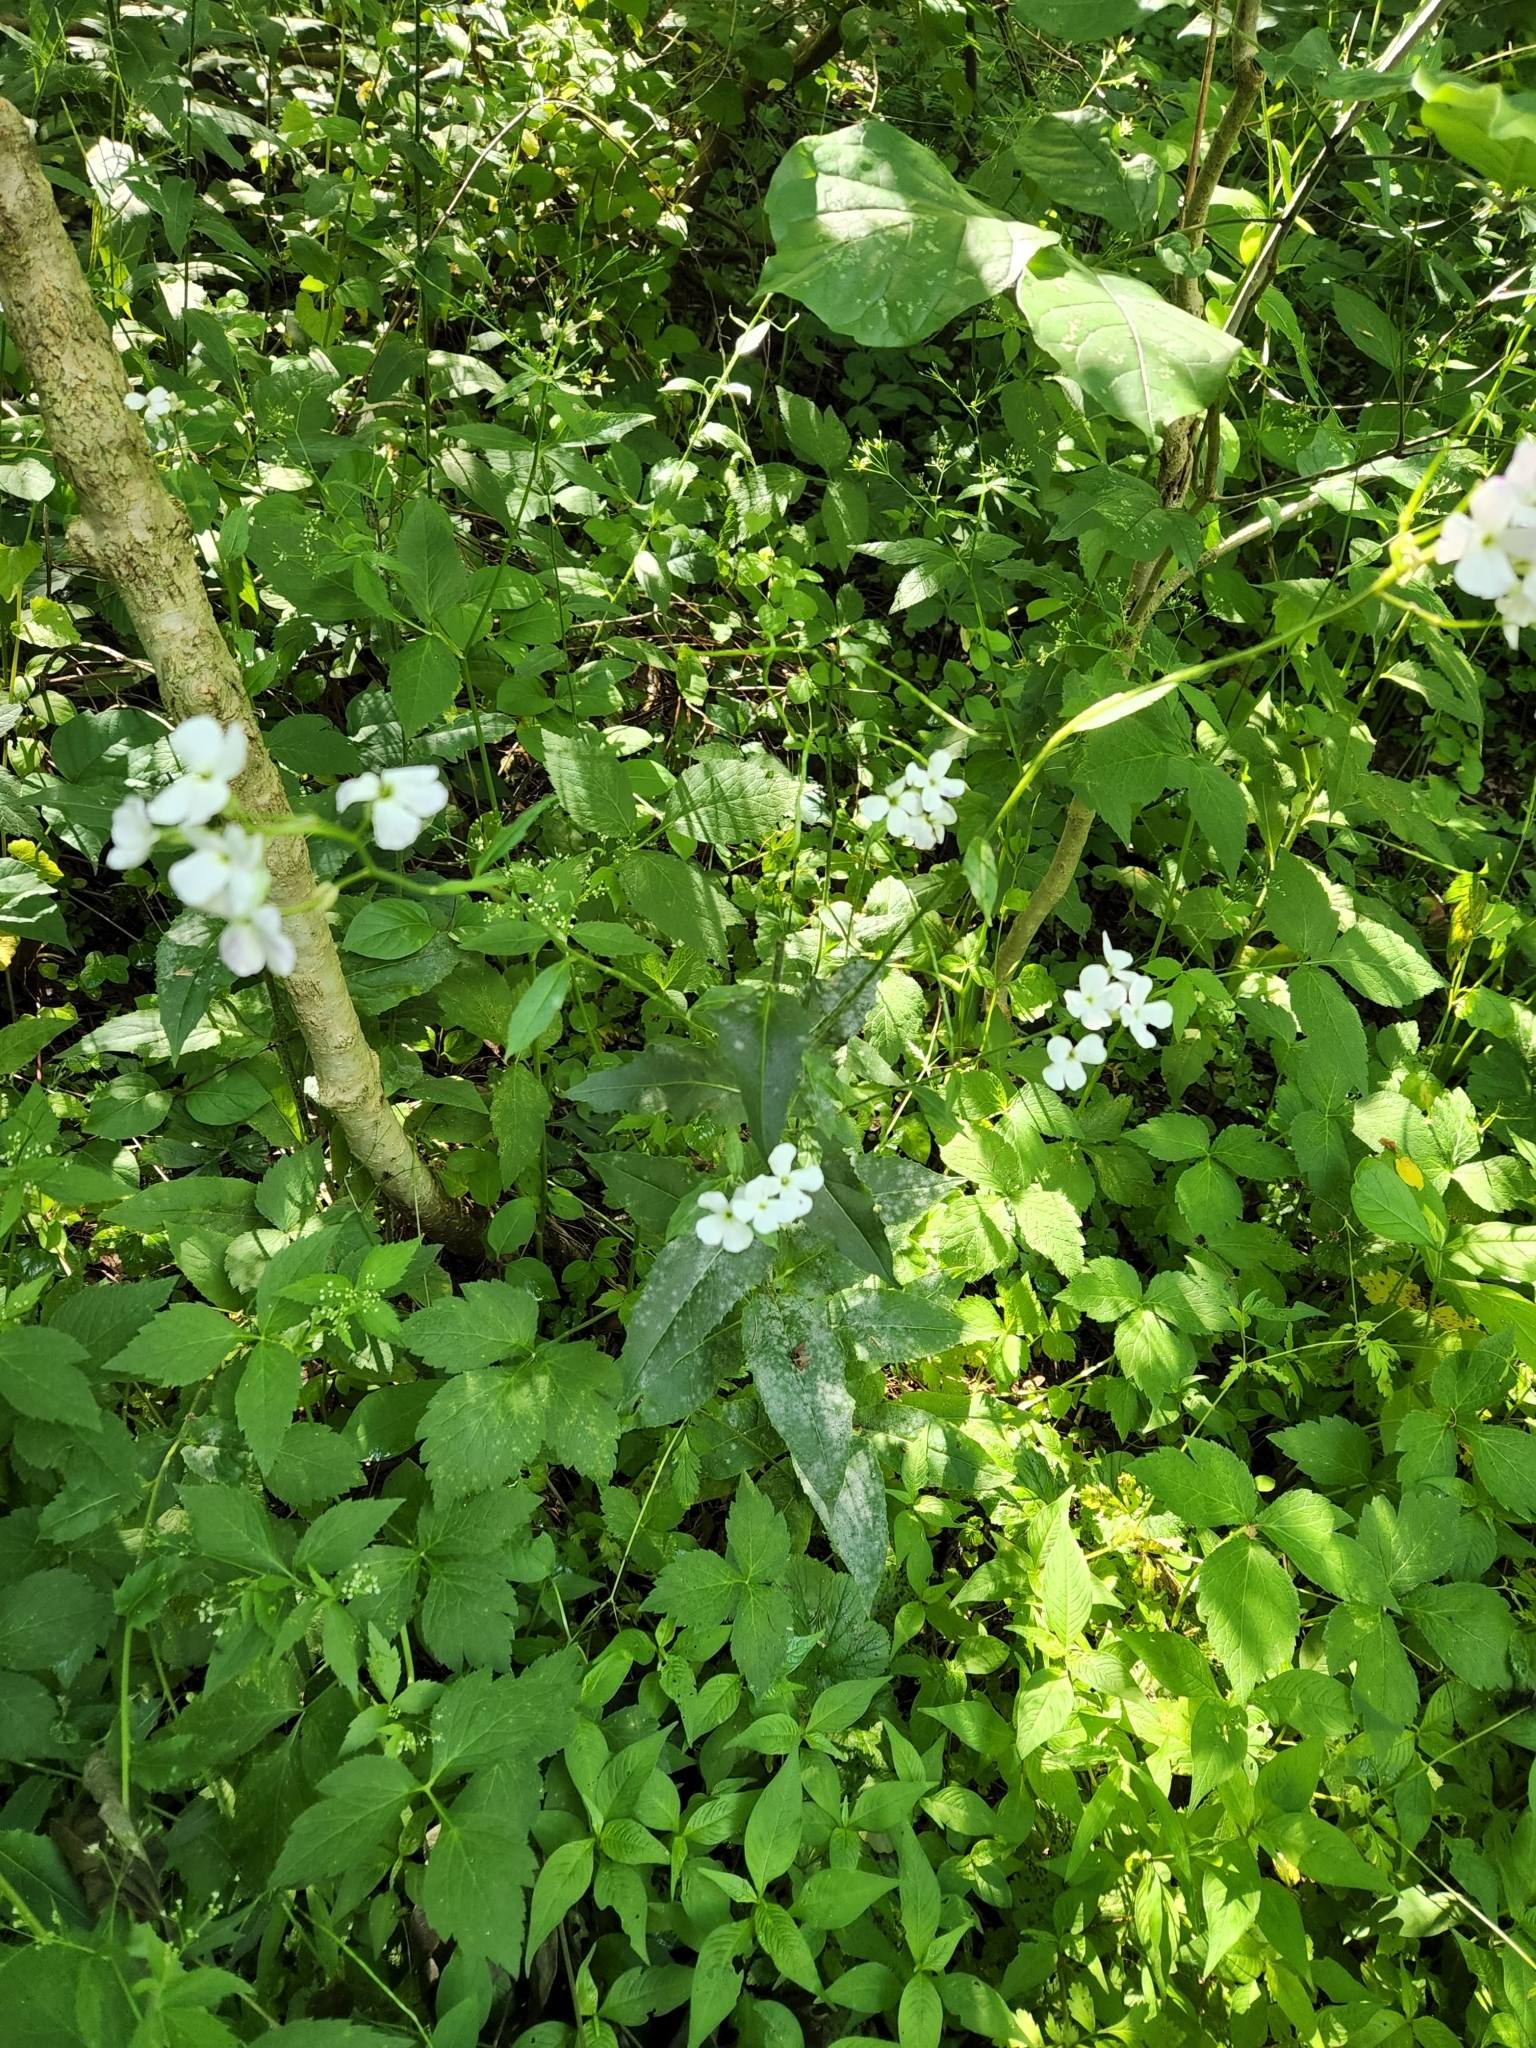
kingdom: Plantae
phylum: Tracheophyta
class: Magnoliopsida
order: Brassicales
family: Brassicaceae
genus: Hesperis
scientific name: Hesperis matronalis
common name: Dame's-violet
